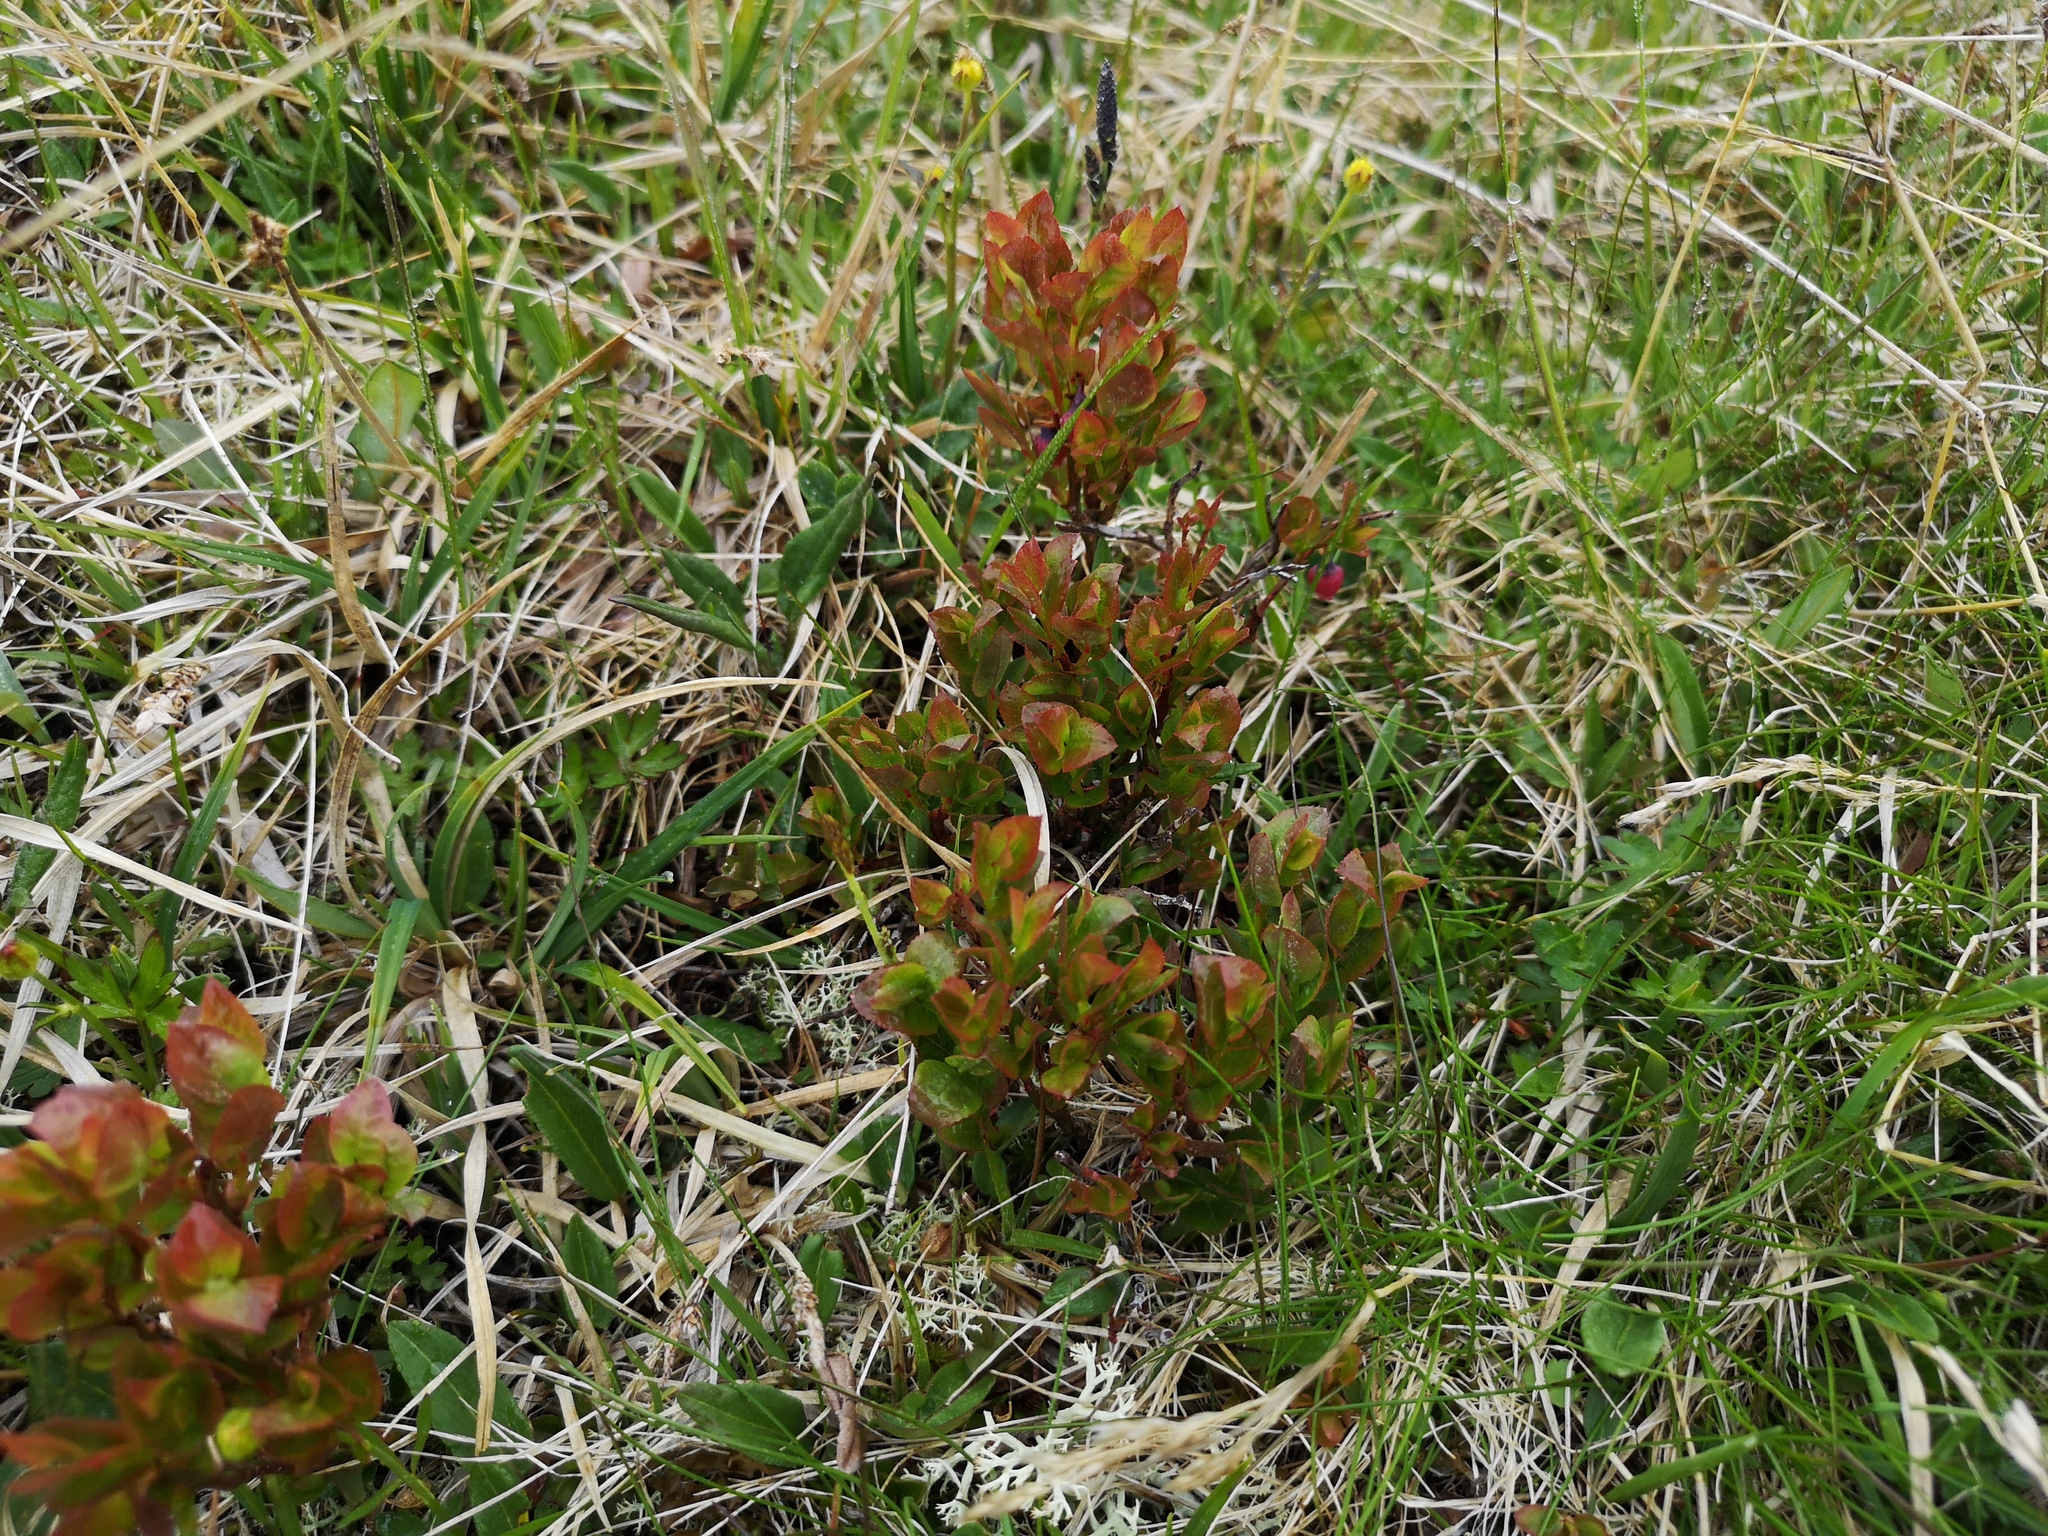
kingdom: Plantae
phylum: Tracheophyta
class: Magnoliopsida
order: Ericales
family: Ericaceae
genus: Vaccinium
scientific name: Vaccinium myrtillus
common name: Bilberry
